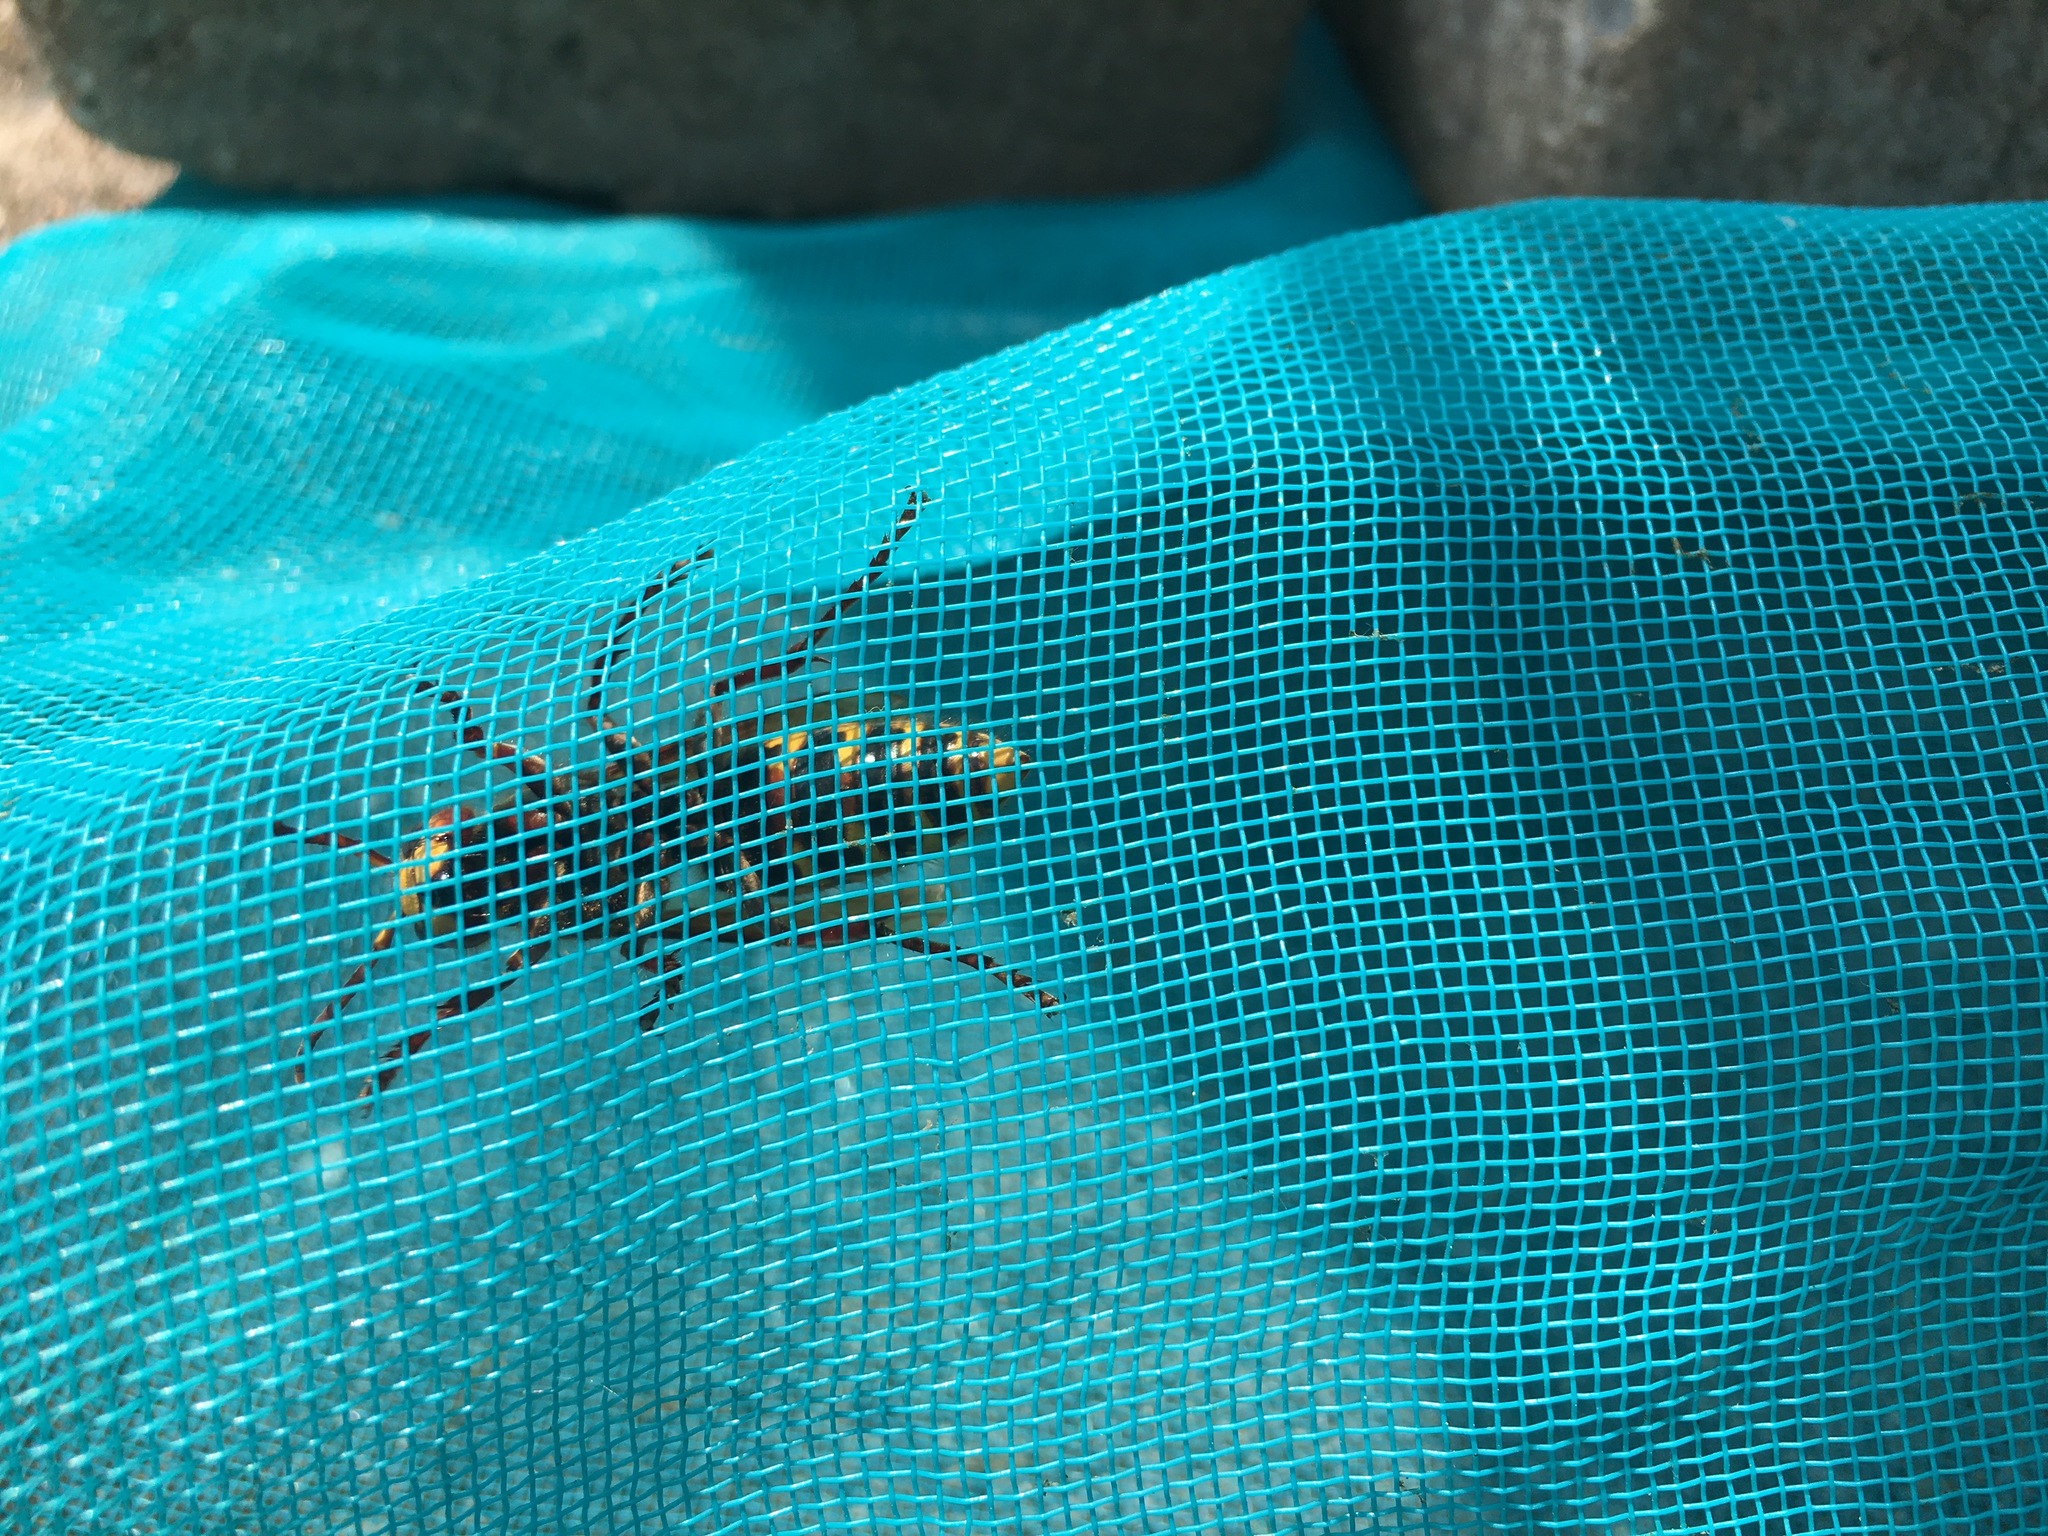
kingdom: Animalia
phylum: Arthropoda
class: Insecta
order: Hymenoptera
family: Vespidae
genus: Vespa
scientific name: Vespa crabro
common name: Hornet
